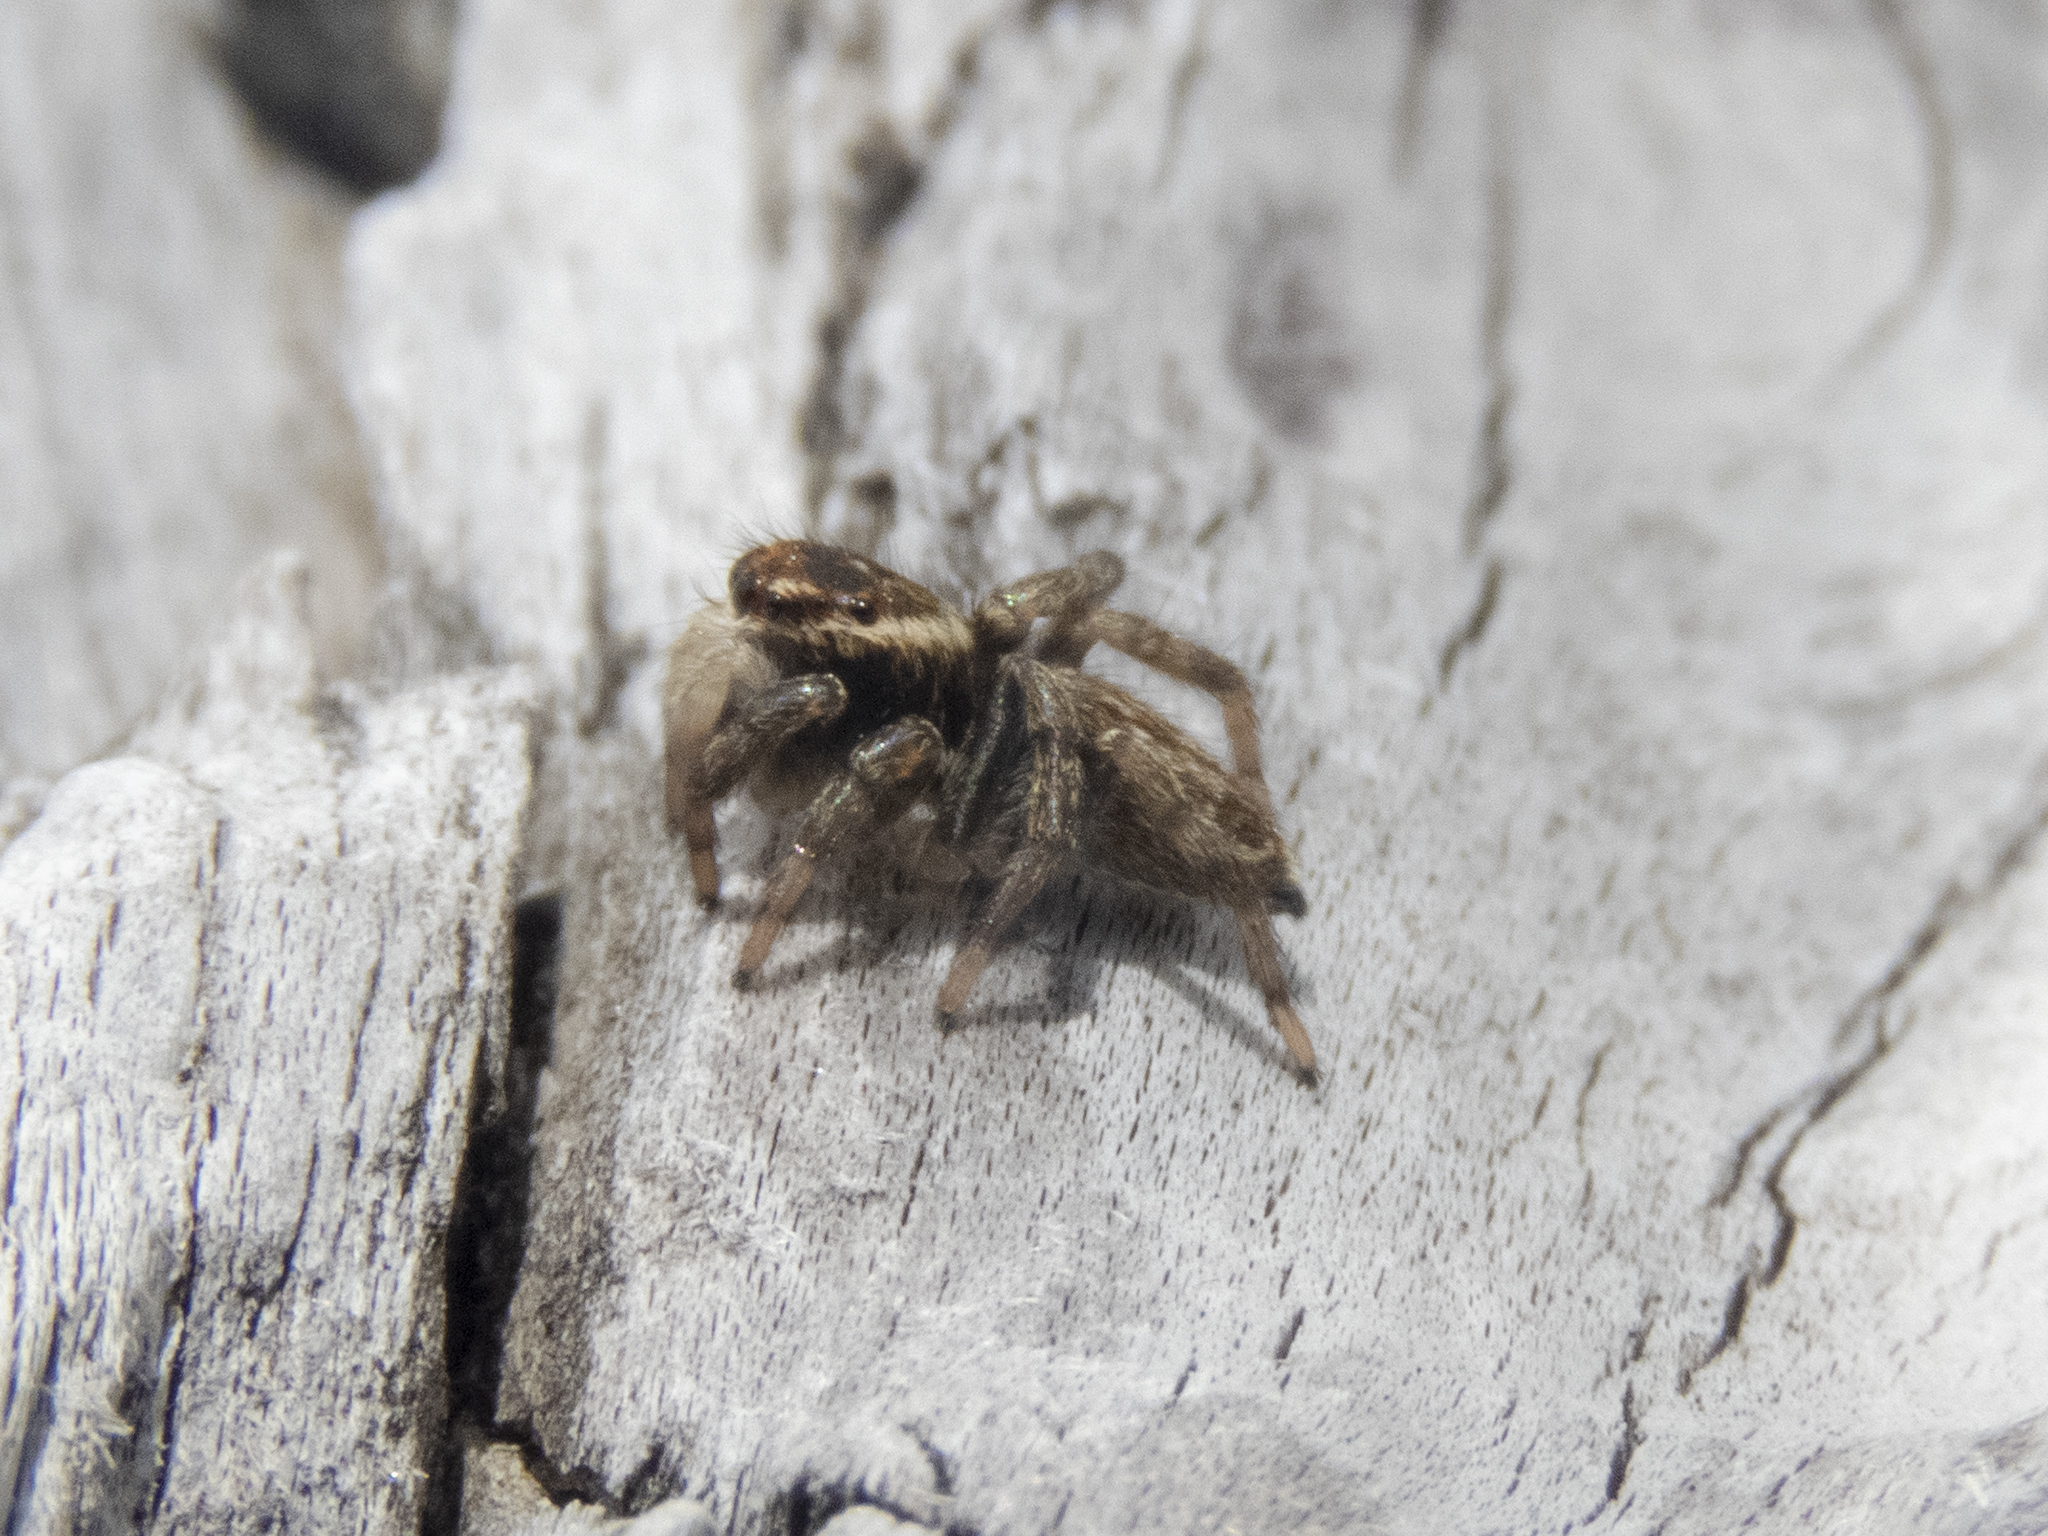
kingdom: Animalia
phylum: Arthropoda
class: Arachnida
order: Araneae
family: Salticidae
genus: Maratus
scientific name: Maratus griseus
